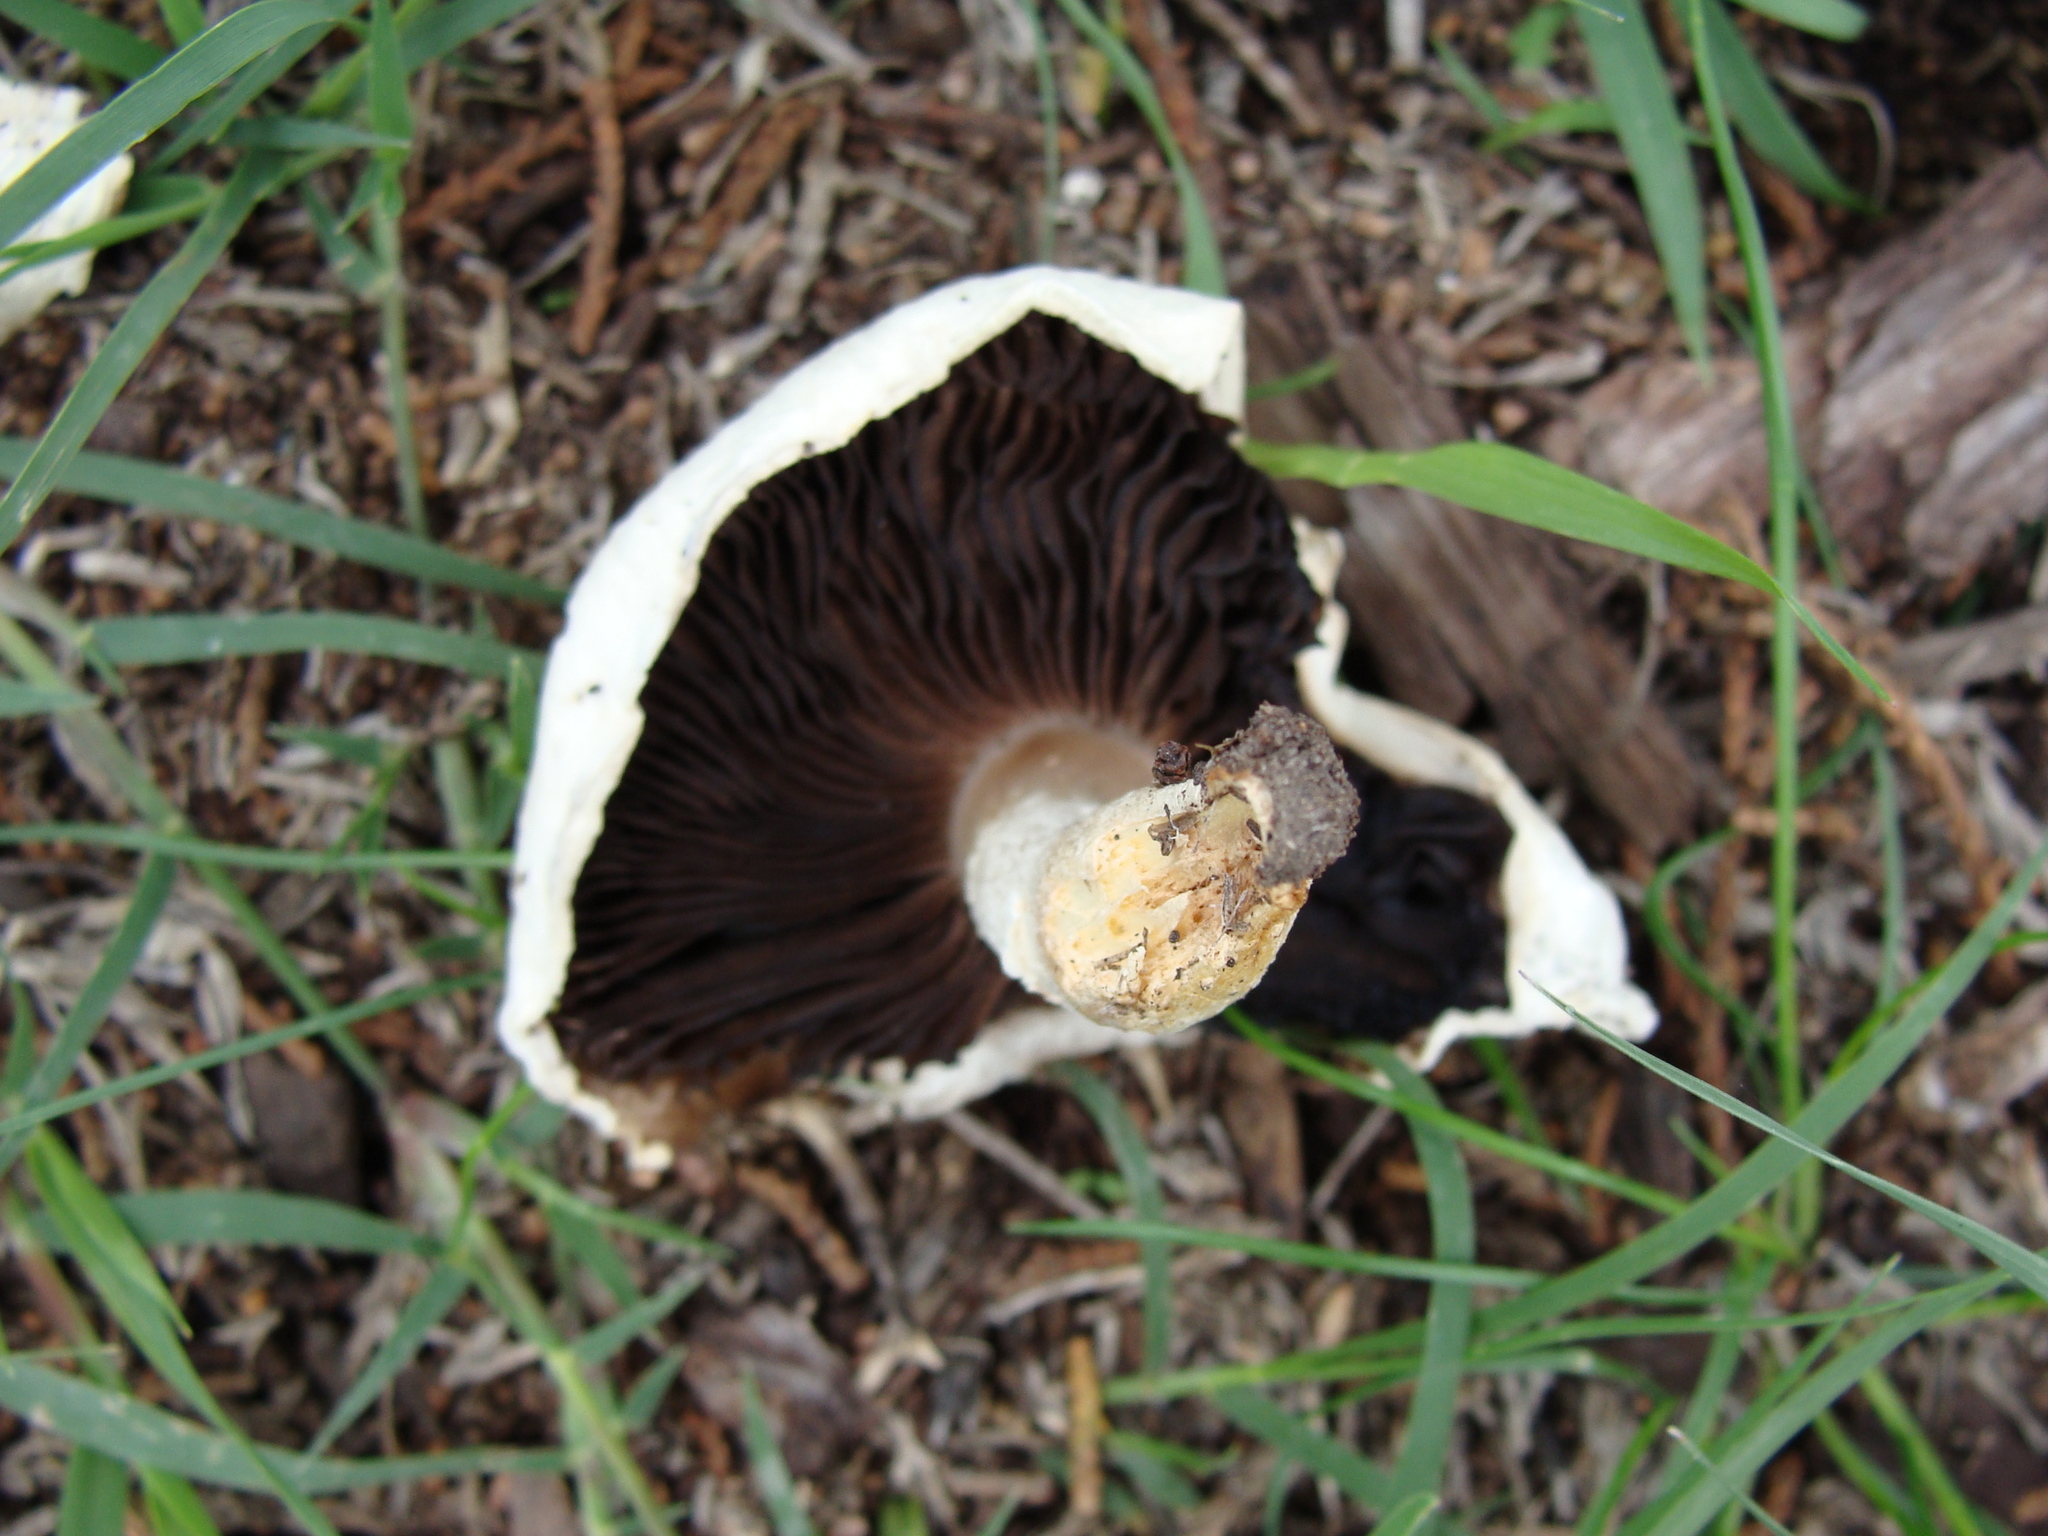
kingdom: Fungi
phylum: Basidiomycota
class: Agaricomycetes
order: Agaricales
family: Agaricaceae
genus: Agaricus
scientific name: Agaricus campestris
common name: Field mushroom
